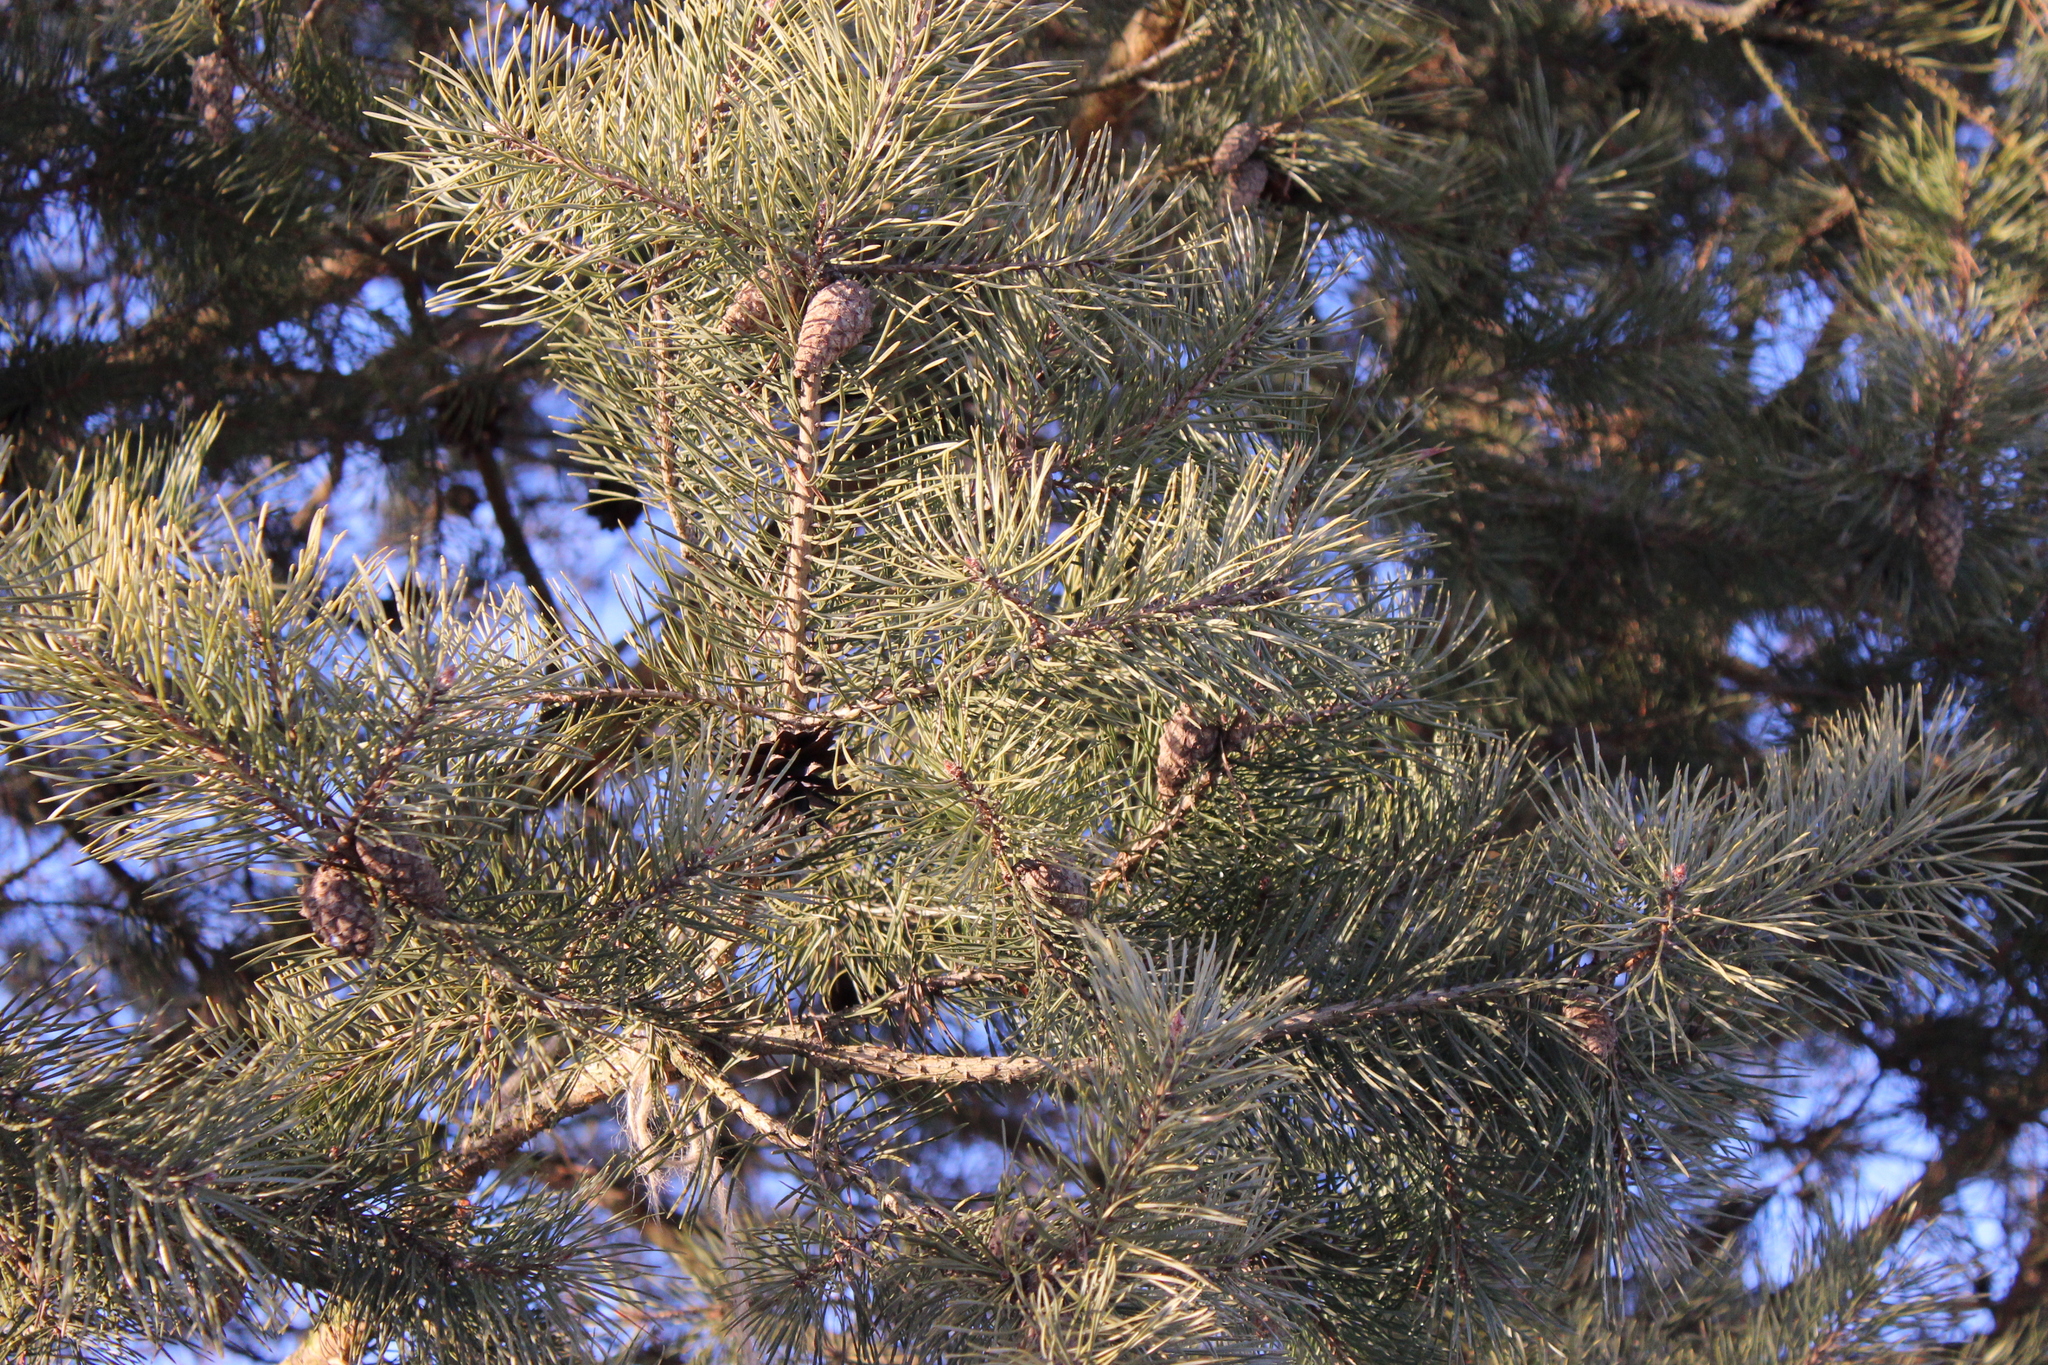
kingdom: Plantae
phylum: Tracheophyta
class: Pinopsida
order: Pinales
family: Pinaceae
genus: Pinus
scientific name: Pinus sylvestris
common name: Scots pine
